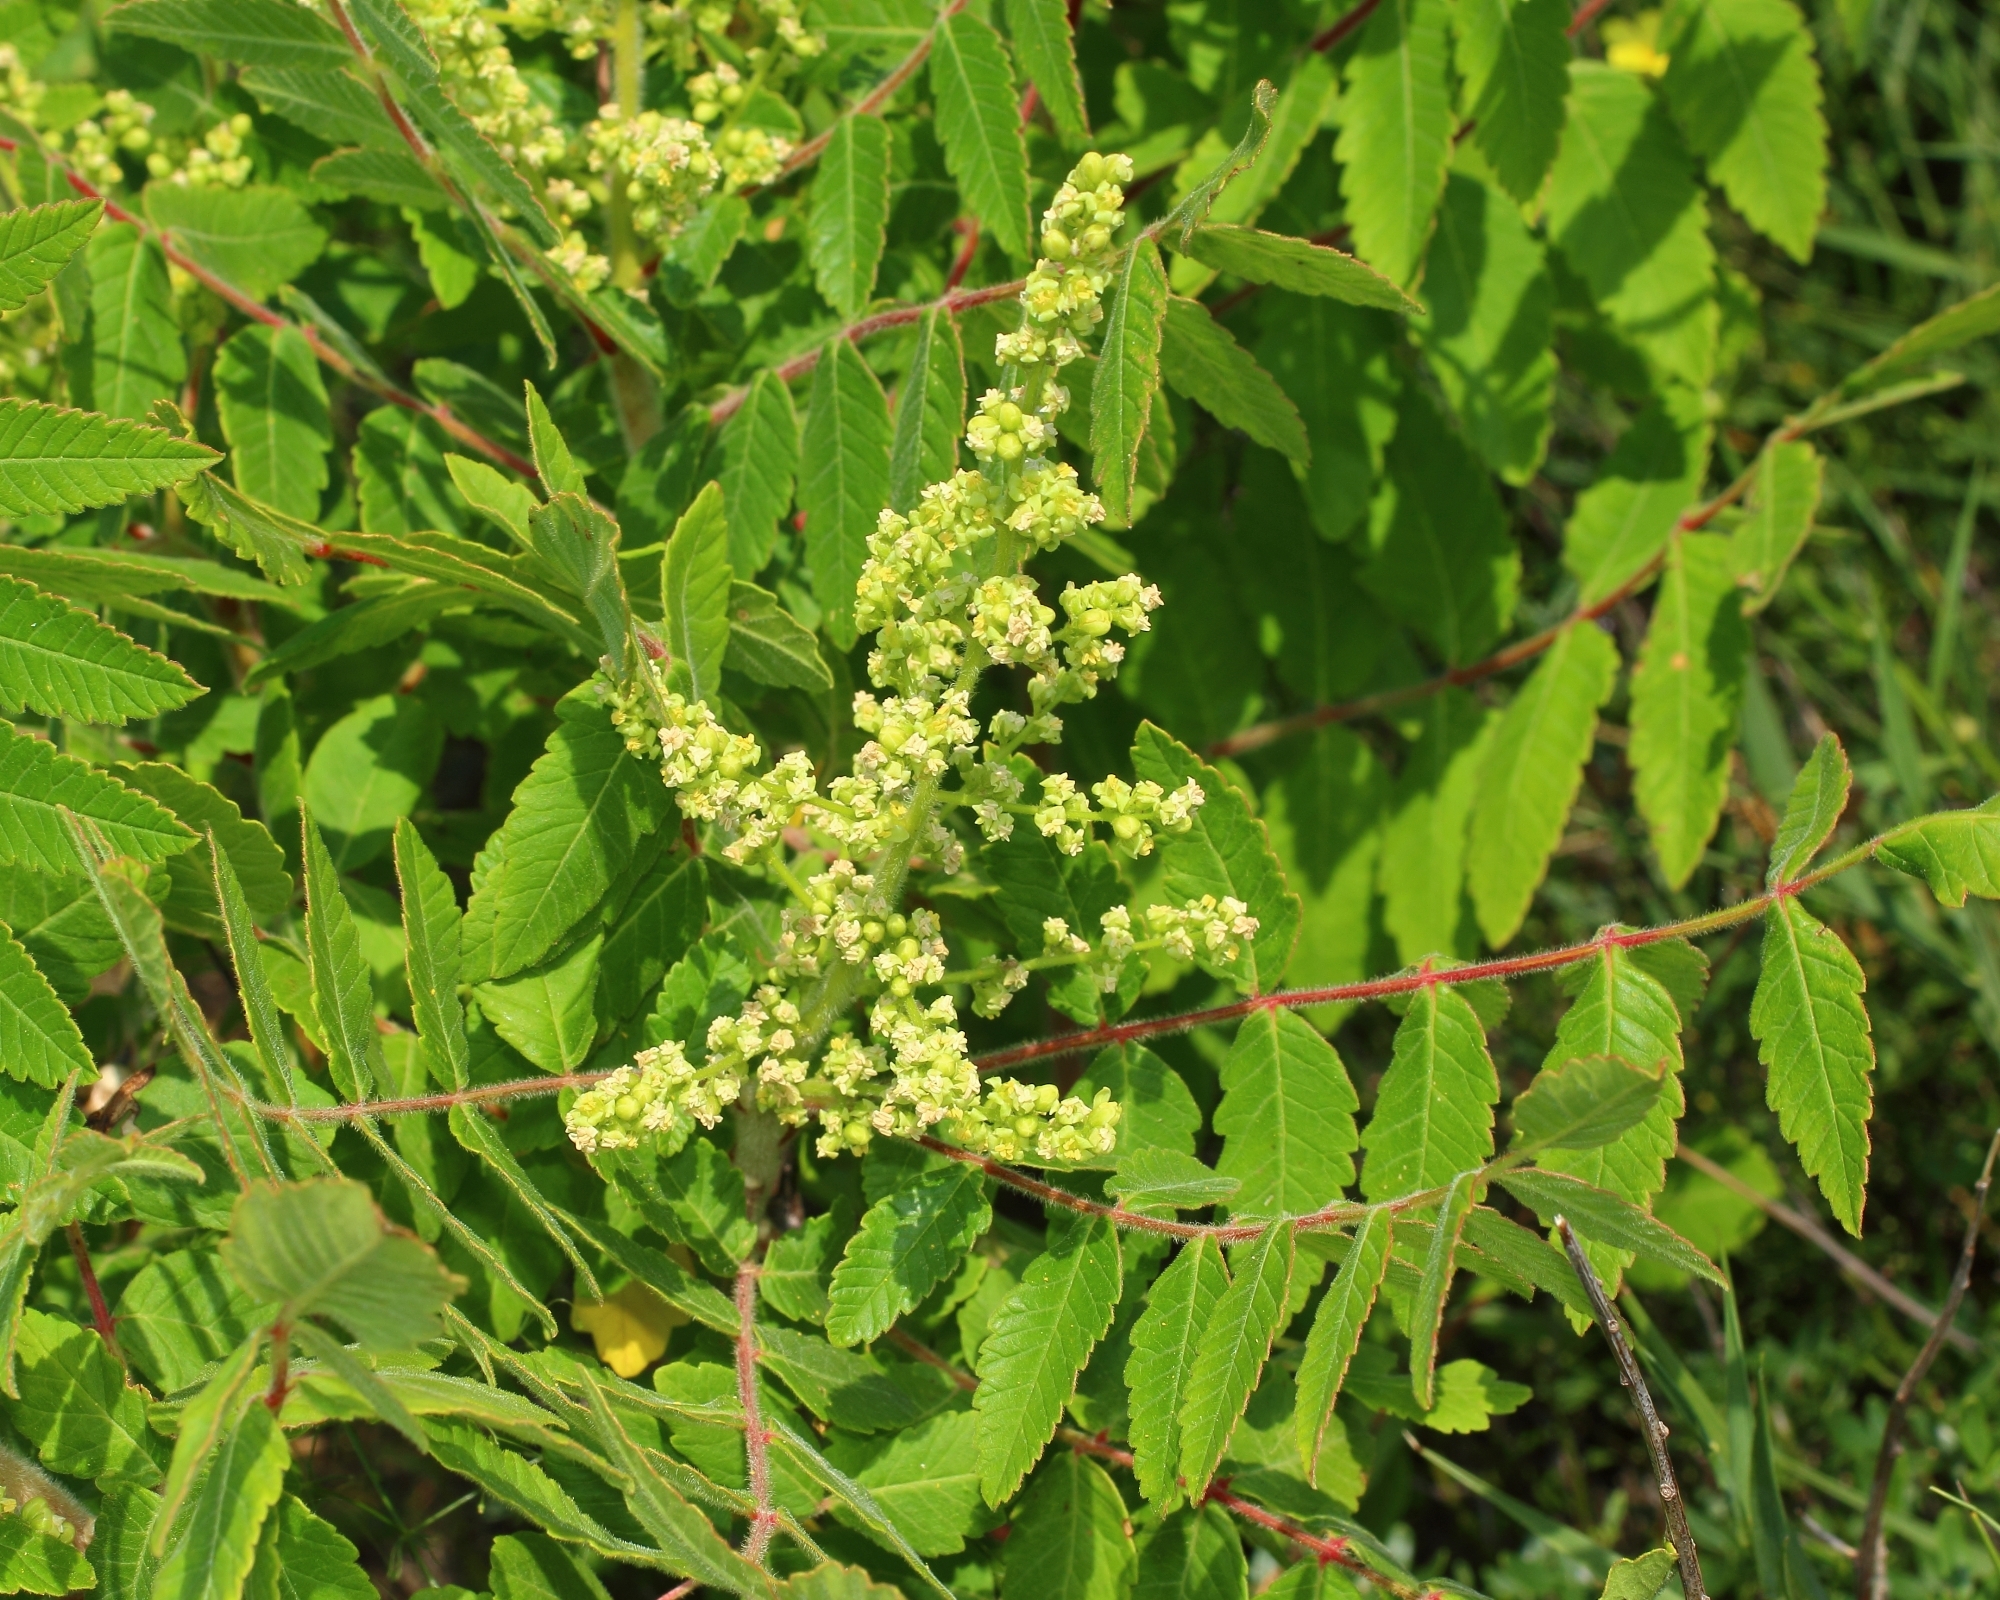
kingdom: Plantae
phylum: Tracheophyta
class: Magnoliopsida
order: Sapindales
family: Anacardiaceae
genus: Rhus
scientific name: Rhus coriaria
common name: Tanner's sumach
